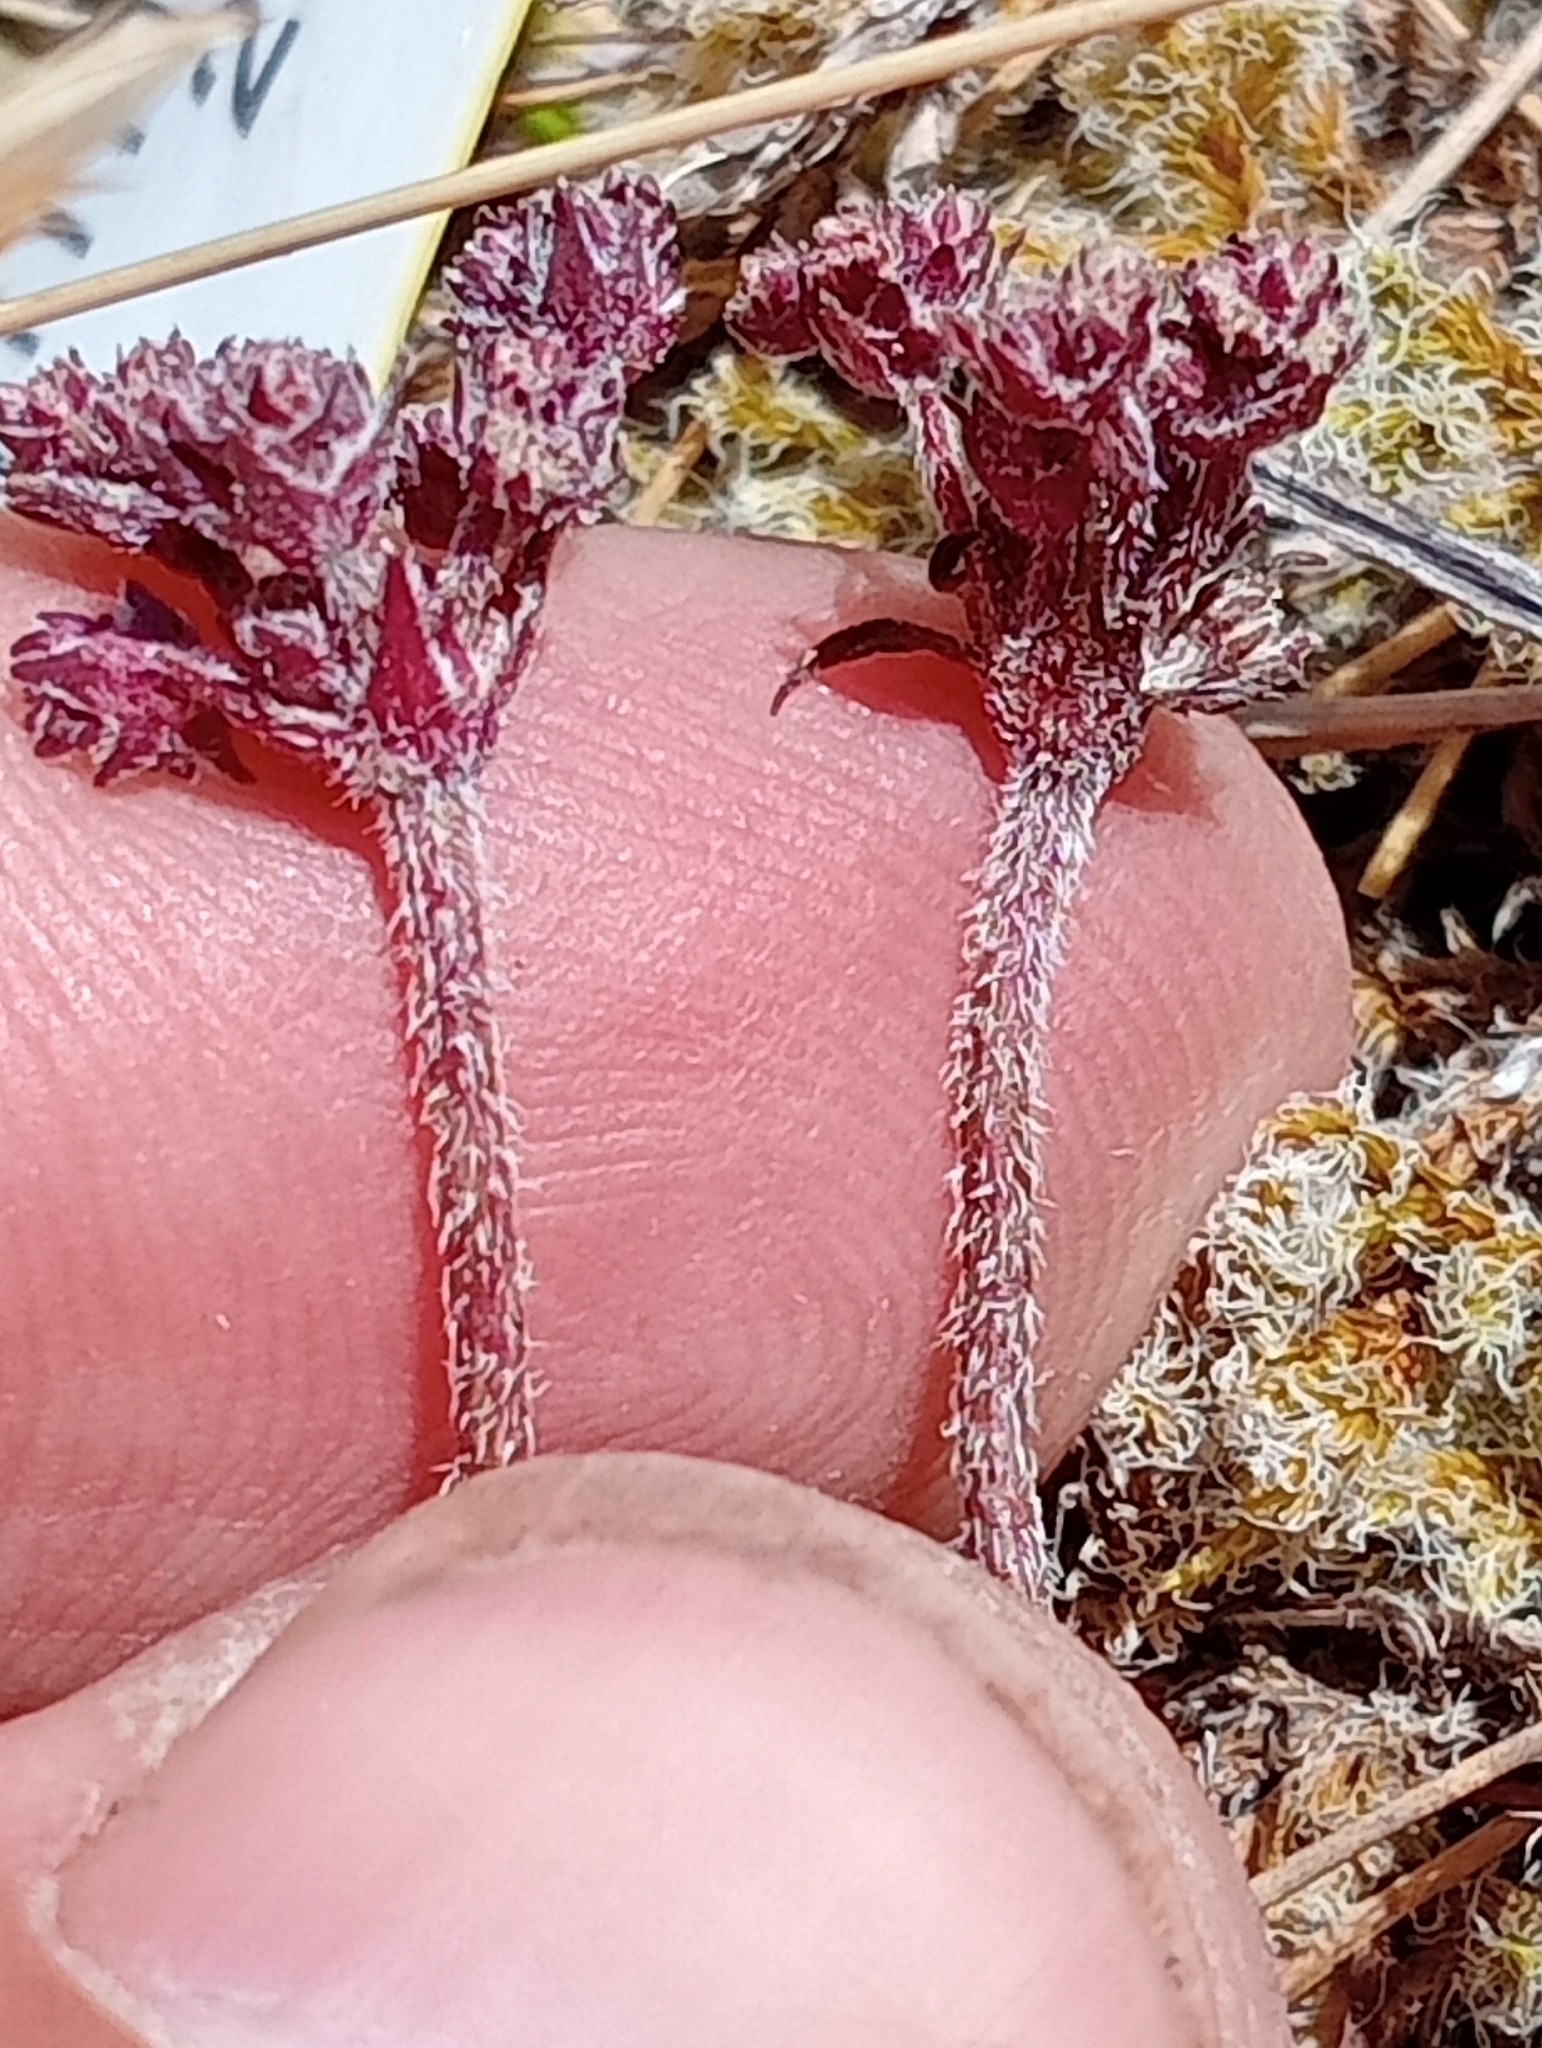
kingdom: Plantae
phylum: Tracheophyta
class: Magnoliopsida
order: Apiales
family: Apiaceae
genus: Chaerophyllum
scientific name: Chaerophyllum colensoi
